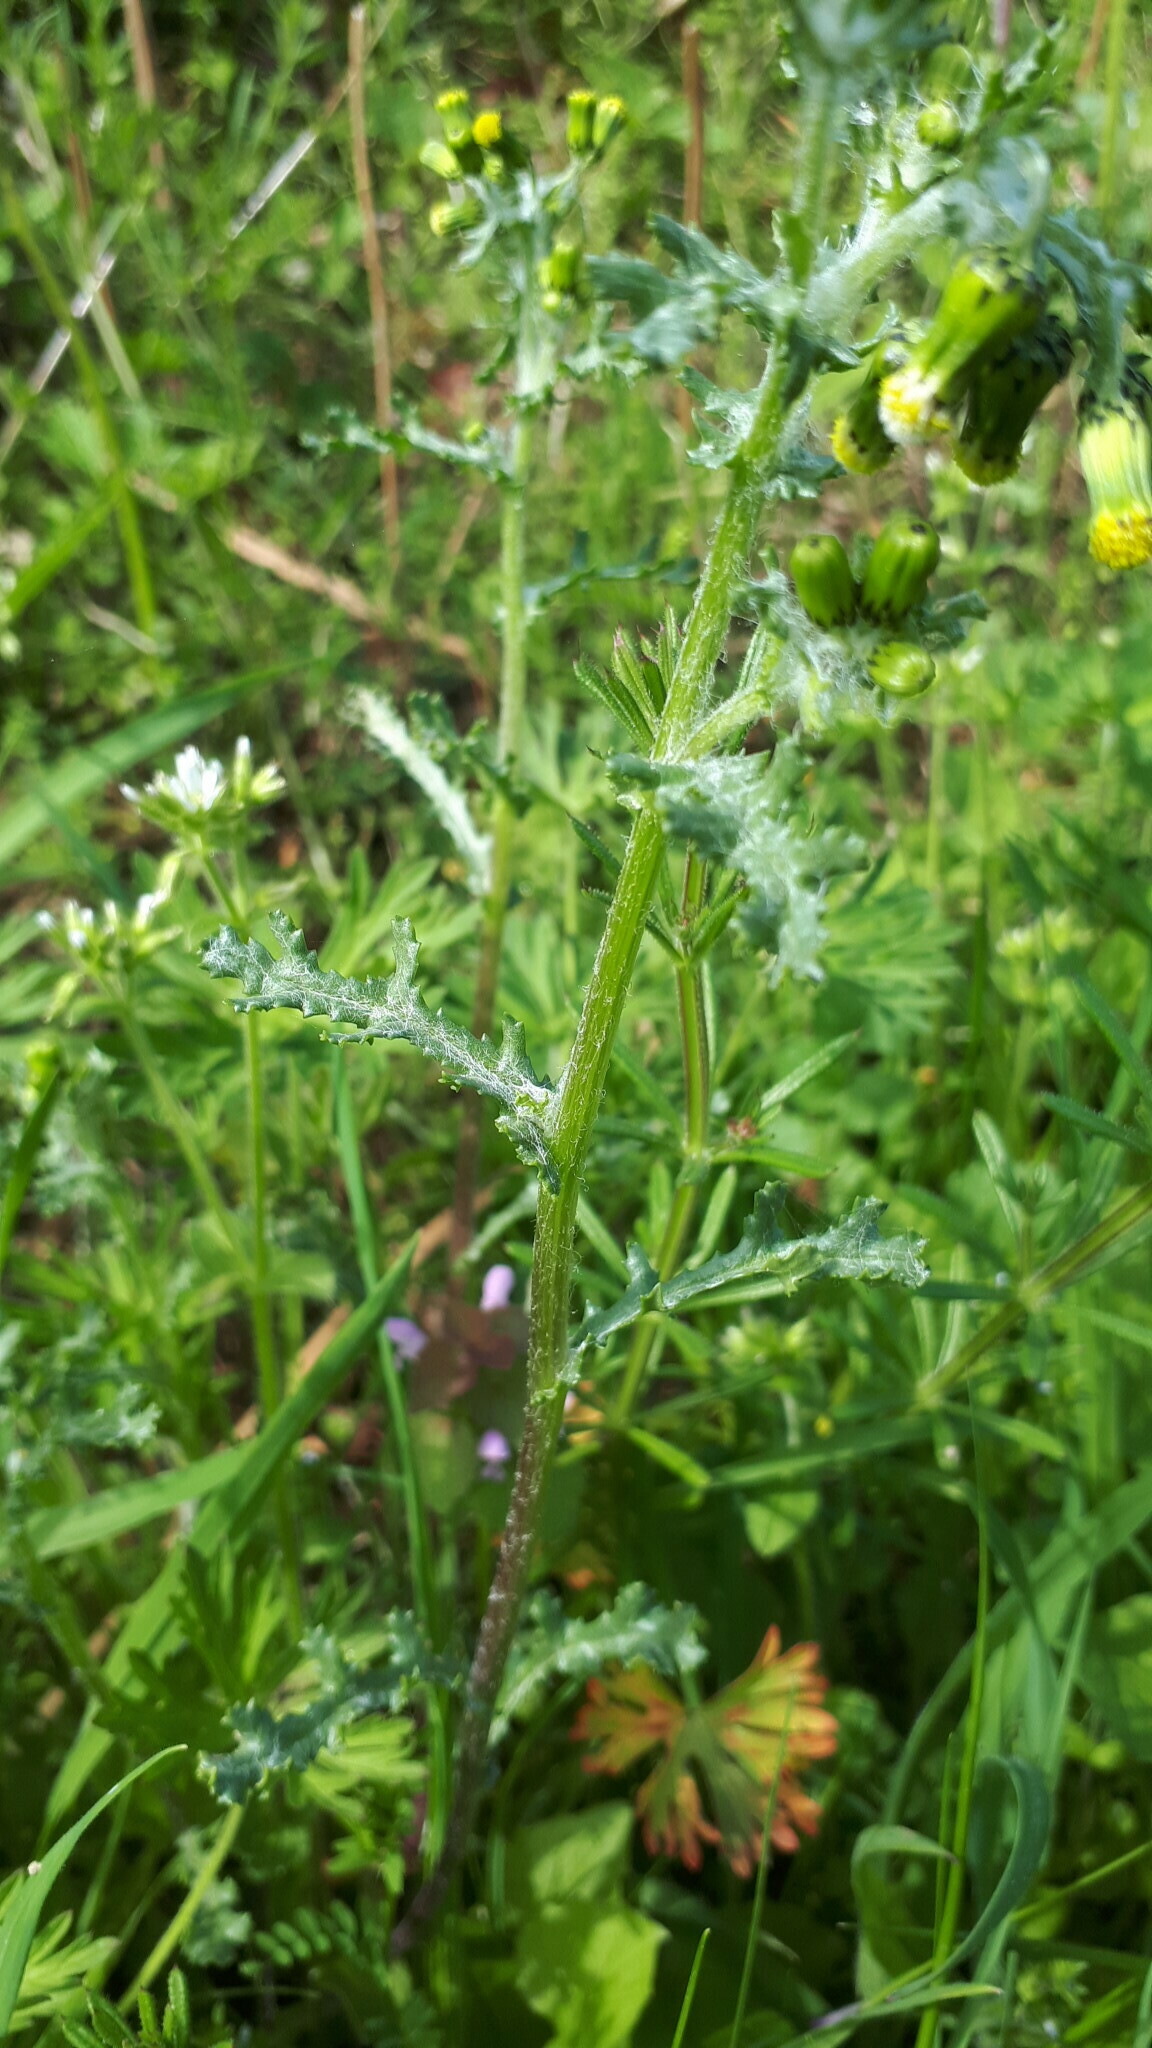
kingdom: Plantae
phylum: Tracheophyta
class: Magnoliopsida
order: Asterales
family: Asteraceae
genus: Senecio
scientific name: Senecio vulgaris
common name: Old-man-in-the-spring
